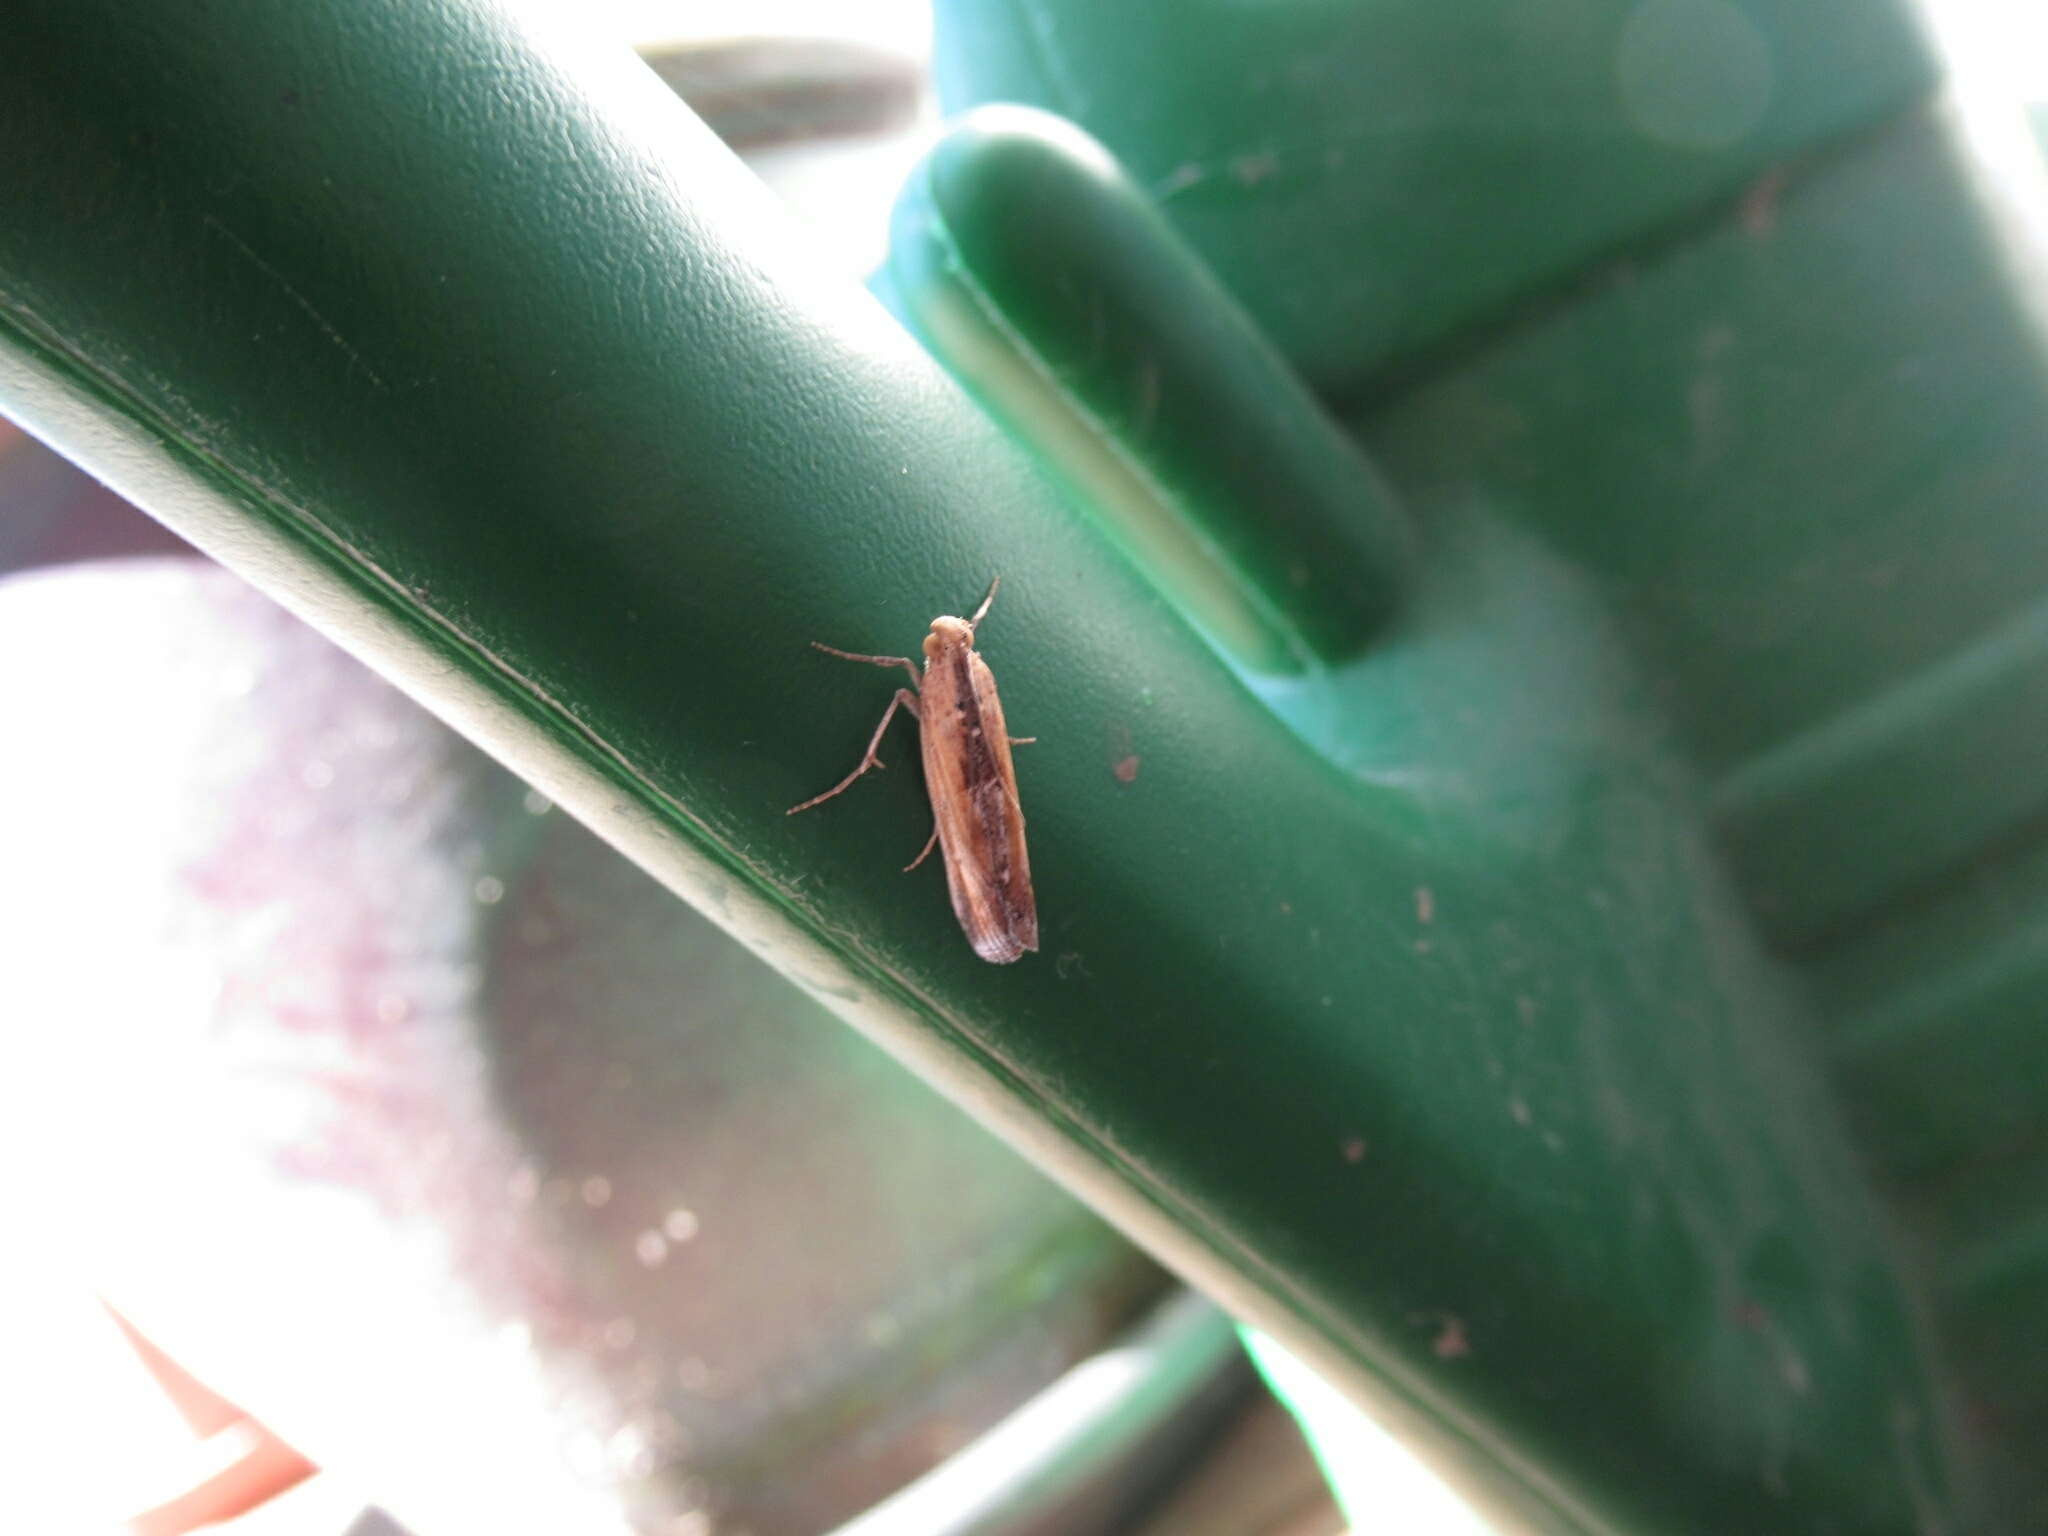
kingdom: Animalia
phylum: Arthropoda
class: Insecta
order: Lepidoptera
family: Pyralidae
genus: Morosaphycita
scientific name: Morosaphycita oculiferella
